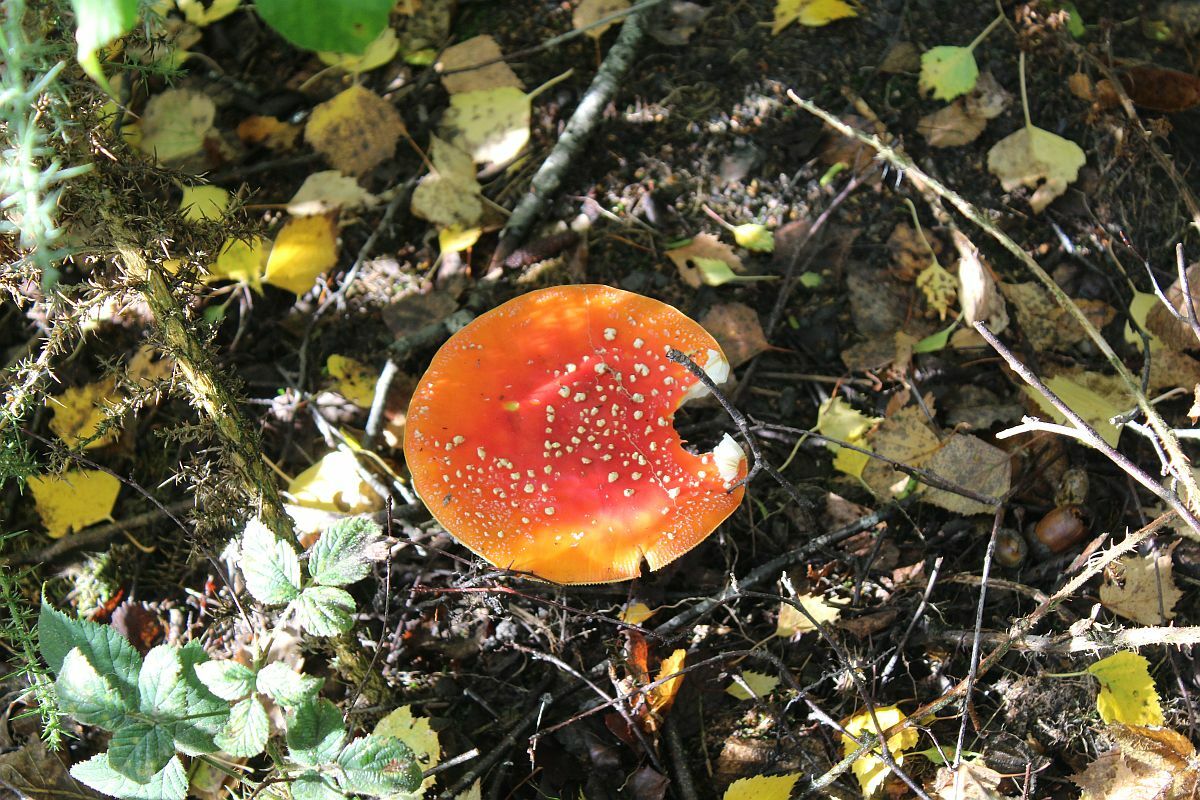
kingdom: Fungi
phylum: Basidiomycota
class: Agaricomycetes
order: Agaricales
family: Amanitaceae
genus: Amanita
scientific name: Amanita muscaria
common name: Fly agaric
